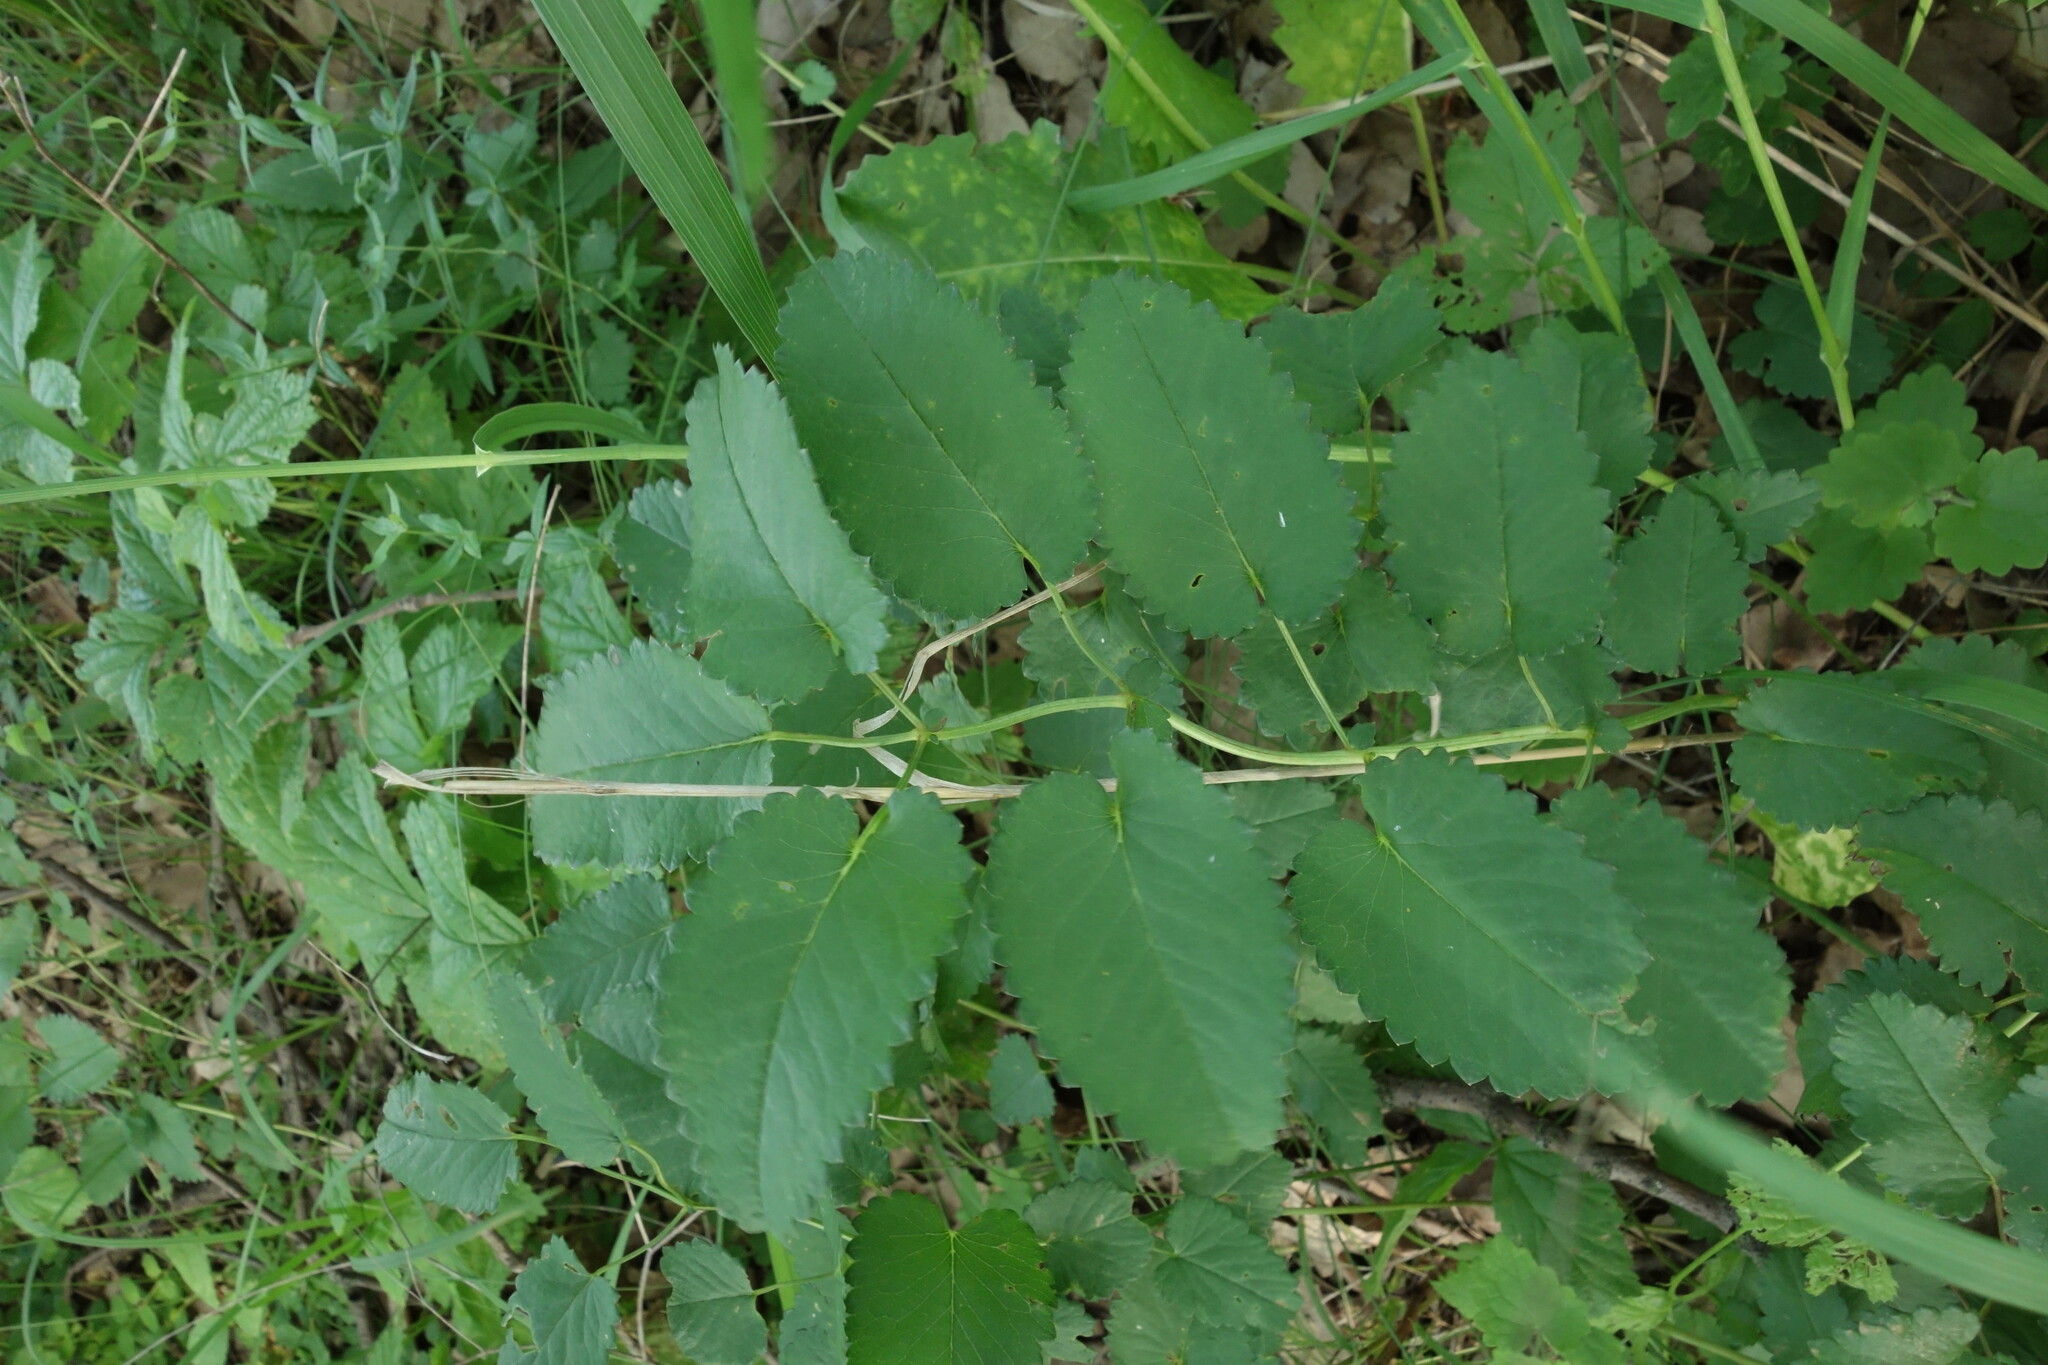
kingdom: Plantae
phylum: Tracheophyta
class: Magnoliopsida
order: Rosales
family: Rosaceae
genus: Sanguisorba
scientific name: Sanguisorba officinalis
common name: Great burnet
